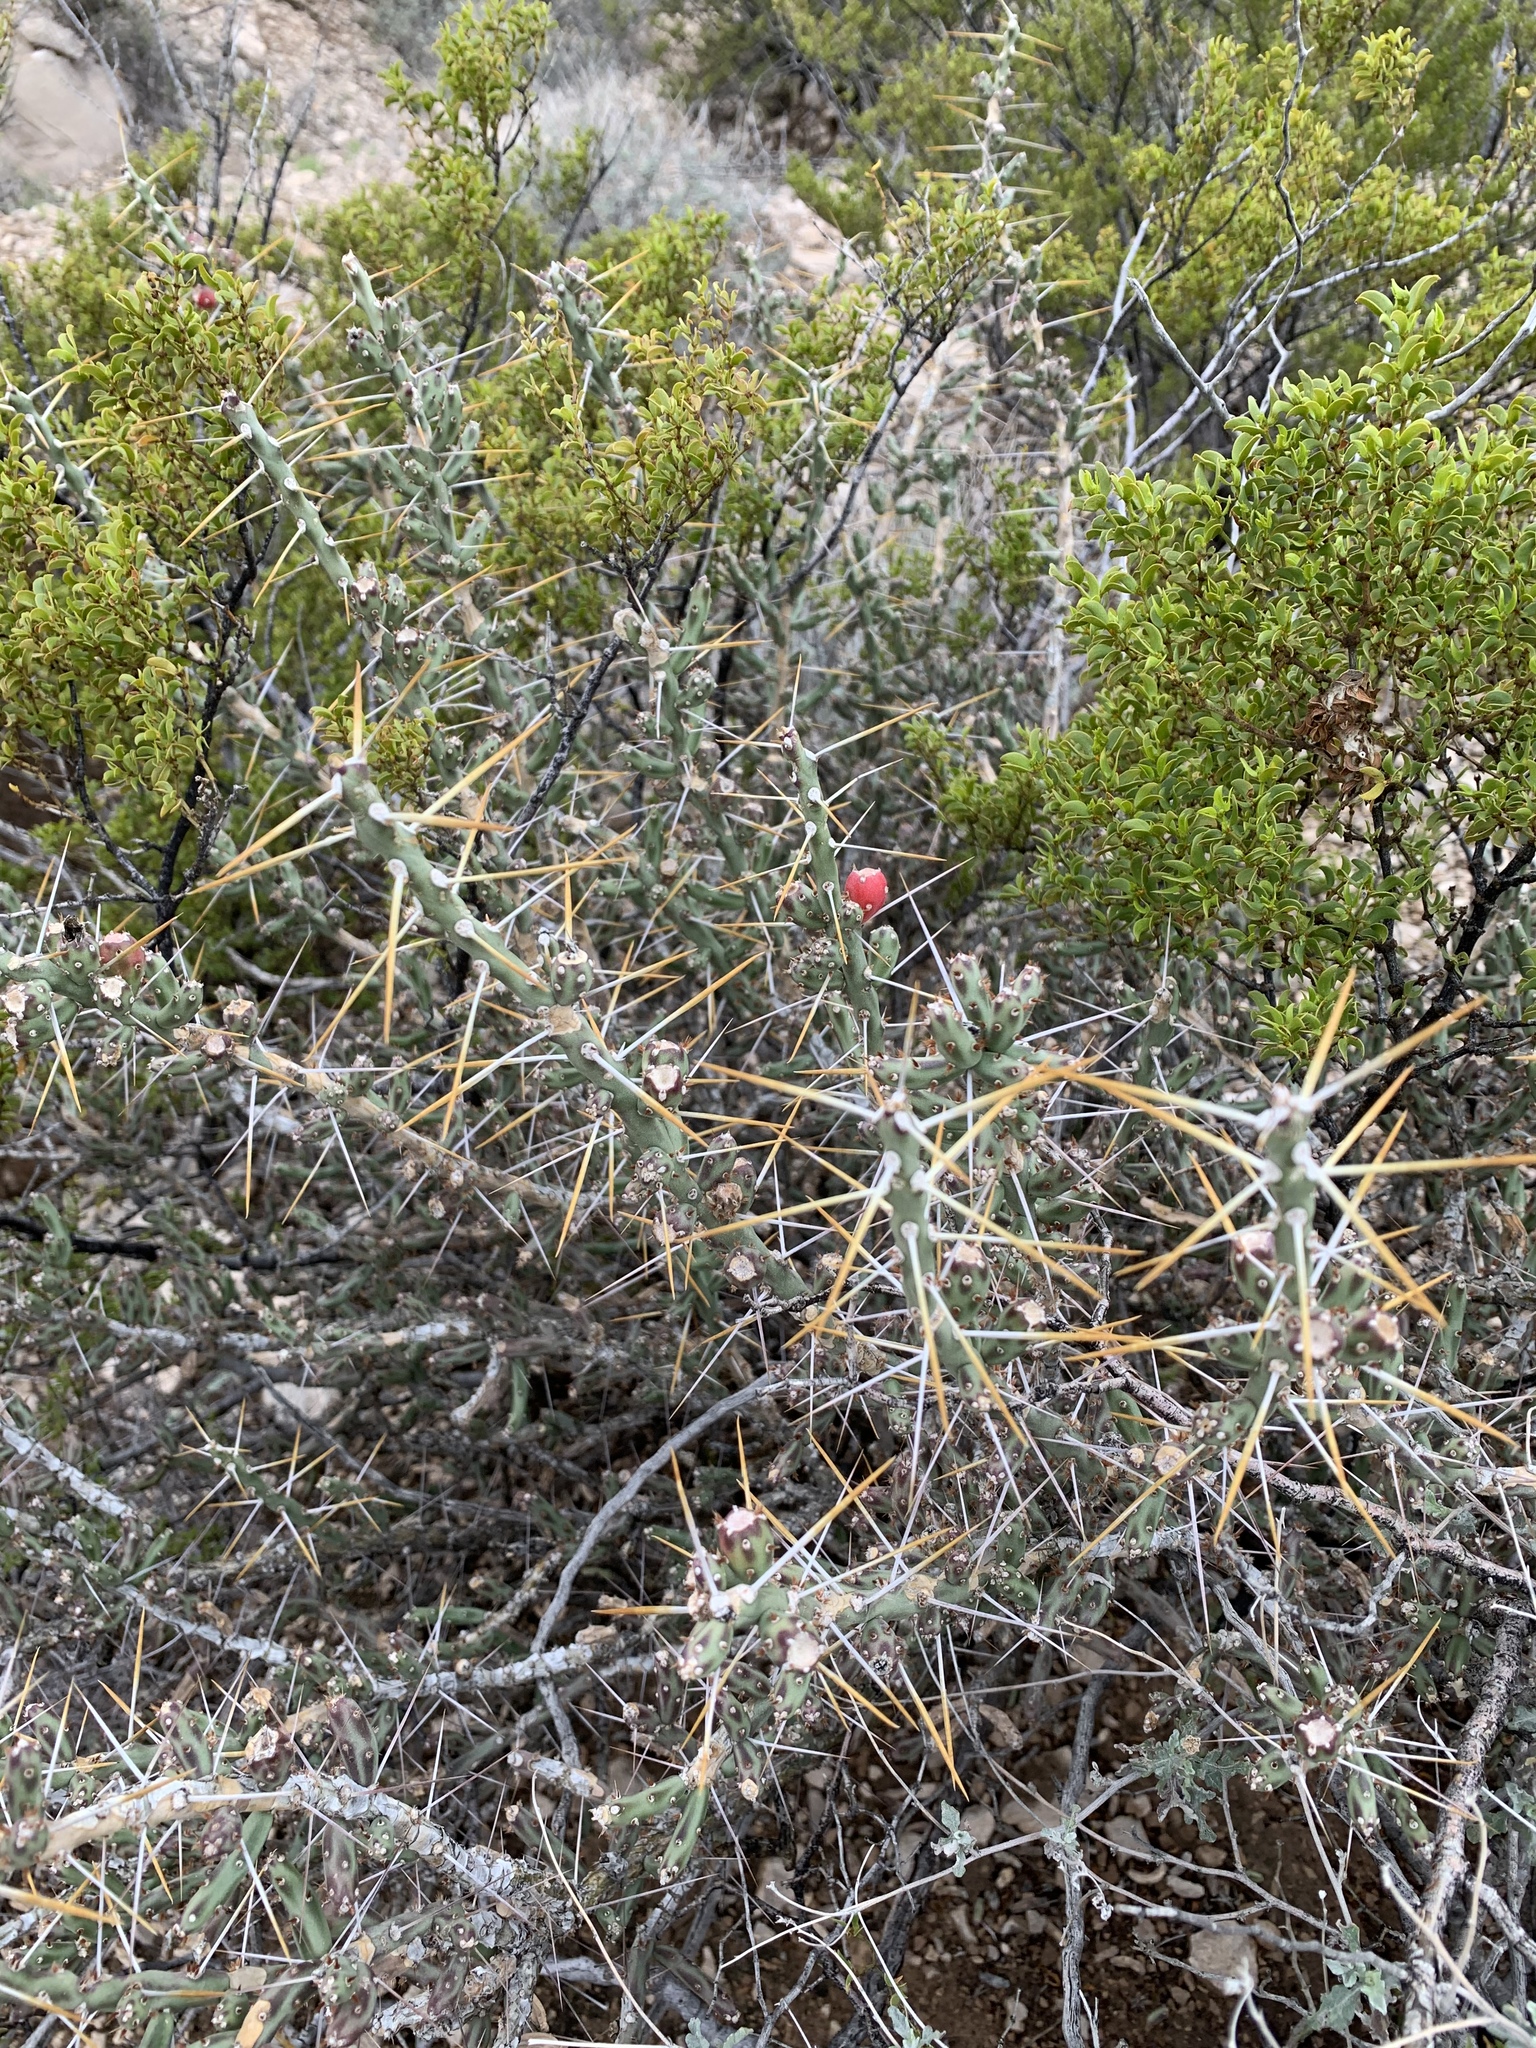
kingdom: Plantae
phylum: Tracheophyta
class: Magnoliopsida
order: Caryophyllales
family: Cactaceae
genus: Cylindropuntia
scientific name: Cylindropuntia leptocaulis
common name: Christmas cactus
